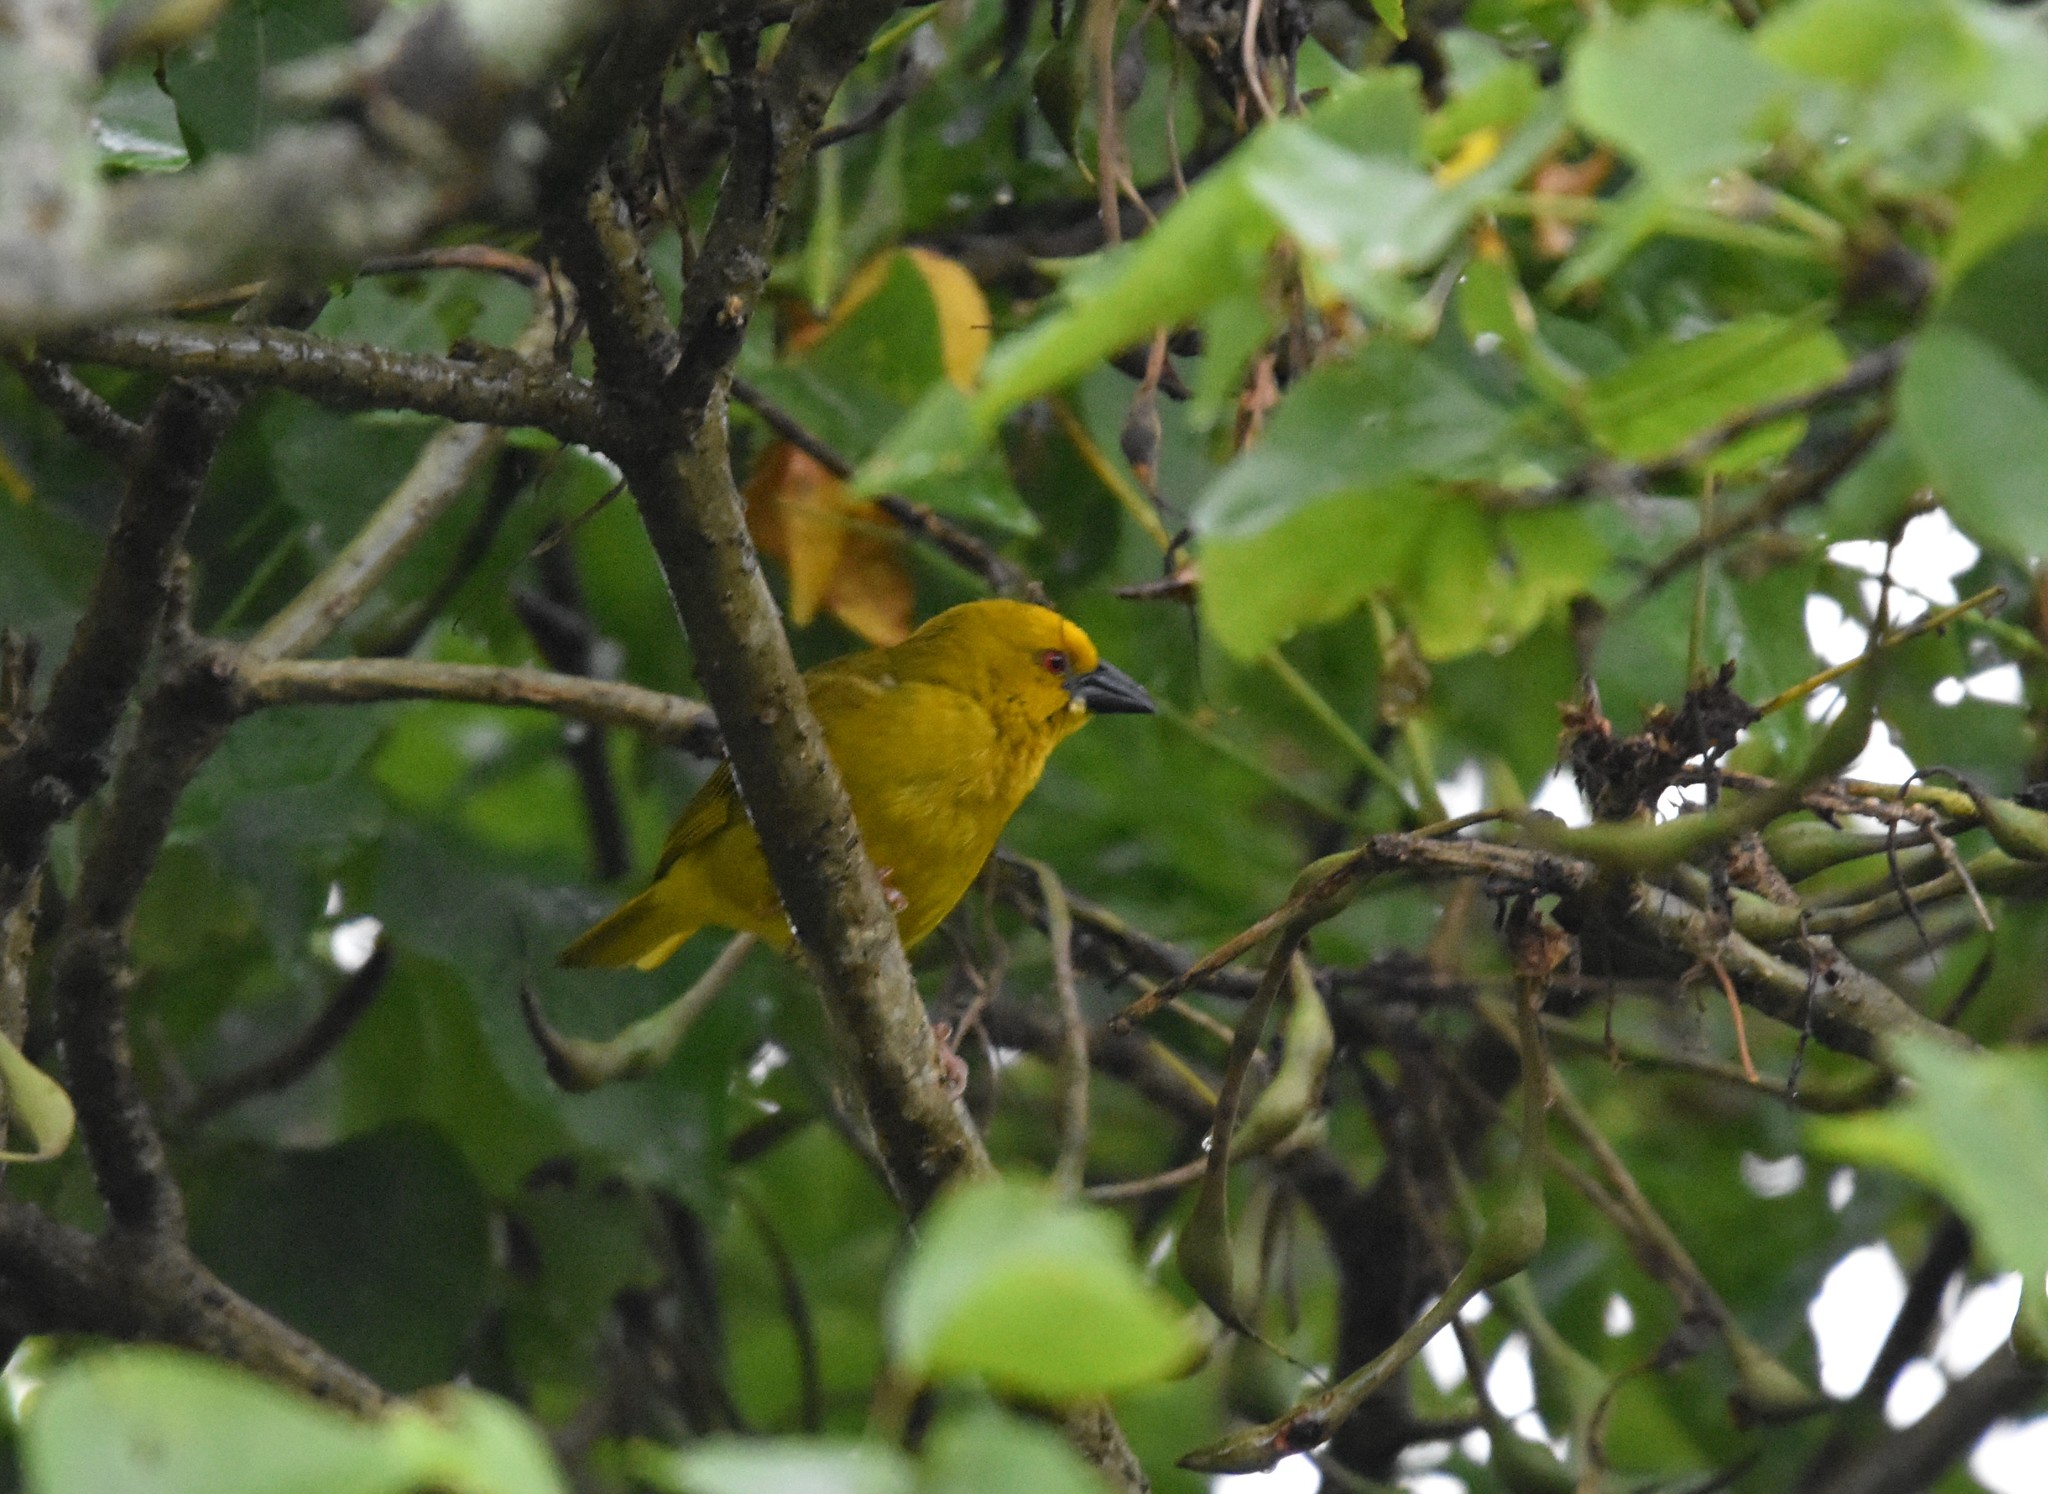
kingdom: Animalia
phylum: Chordata
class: Aves
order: Passeriformes
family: Ploceidae
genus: Ploceus
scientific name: Ploceus subaureus
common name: Yellow weaver
